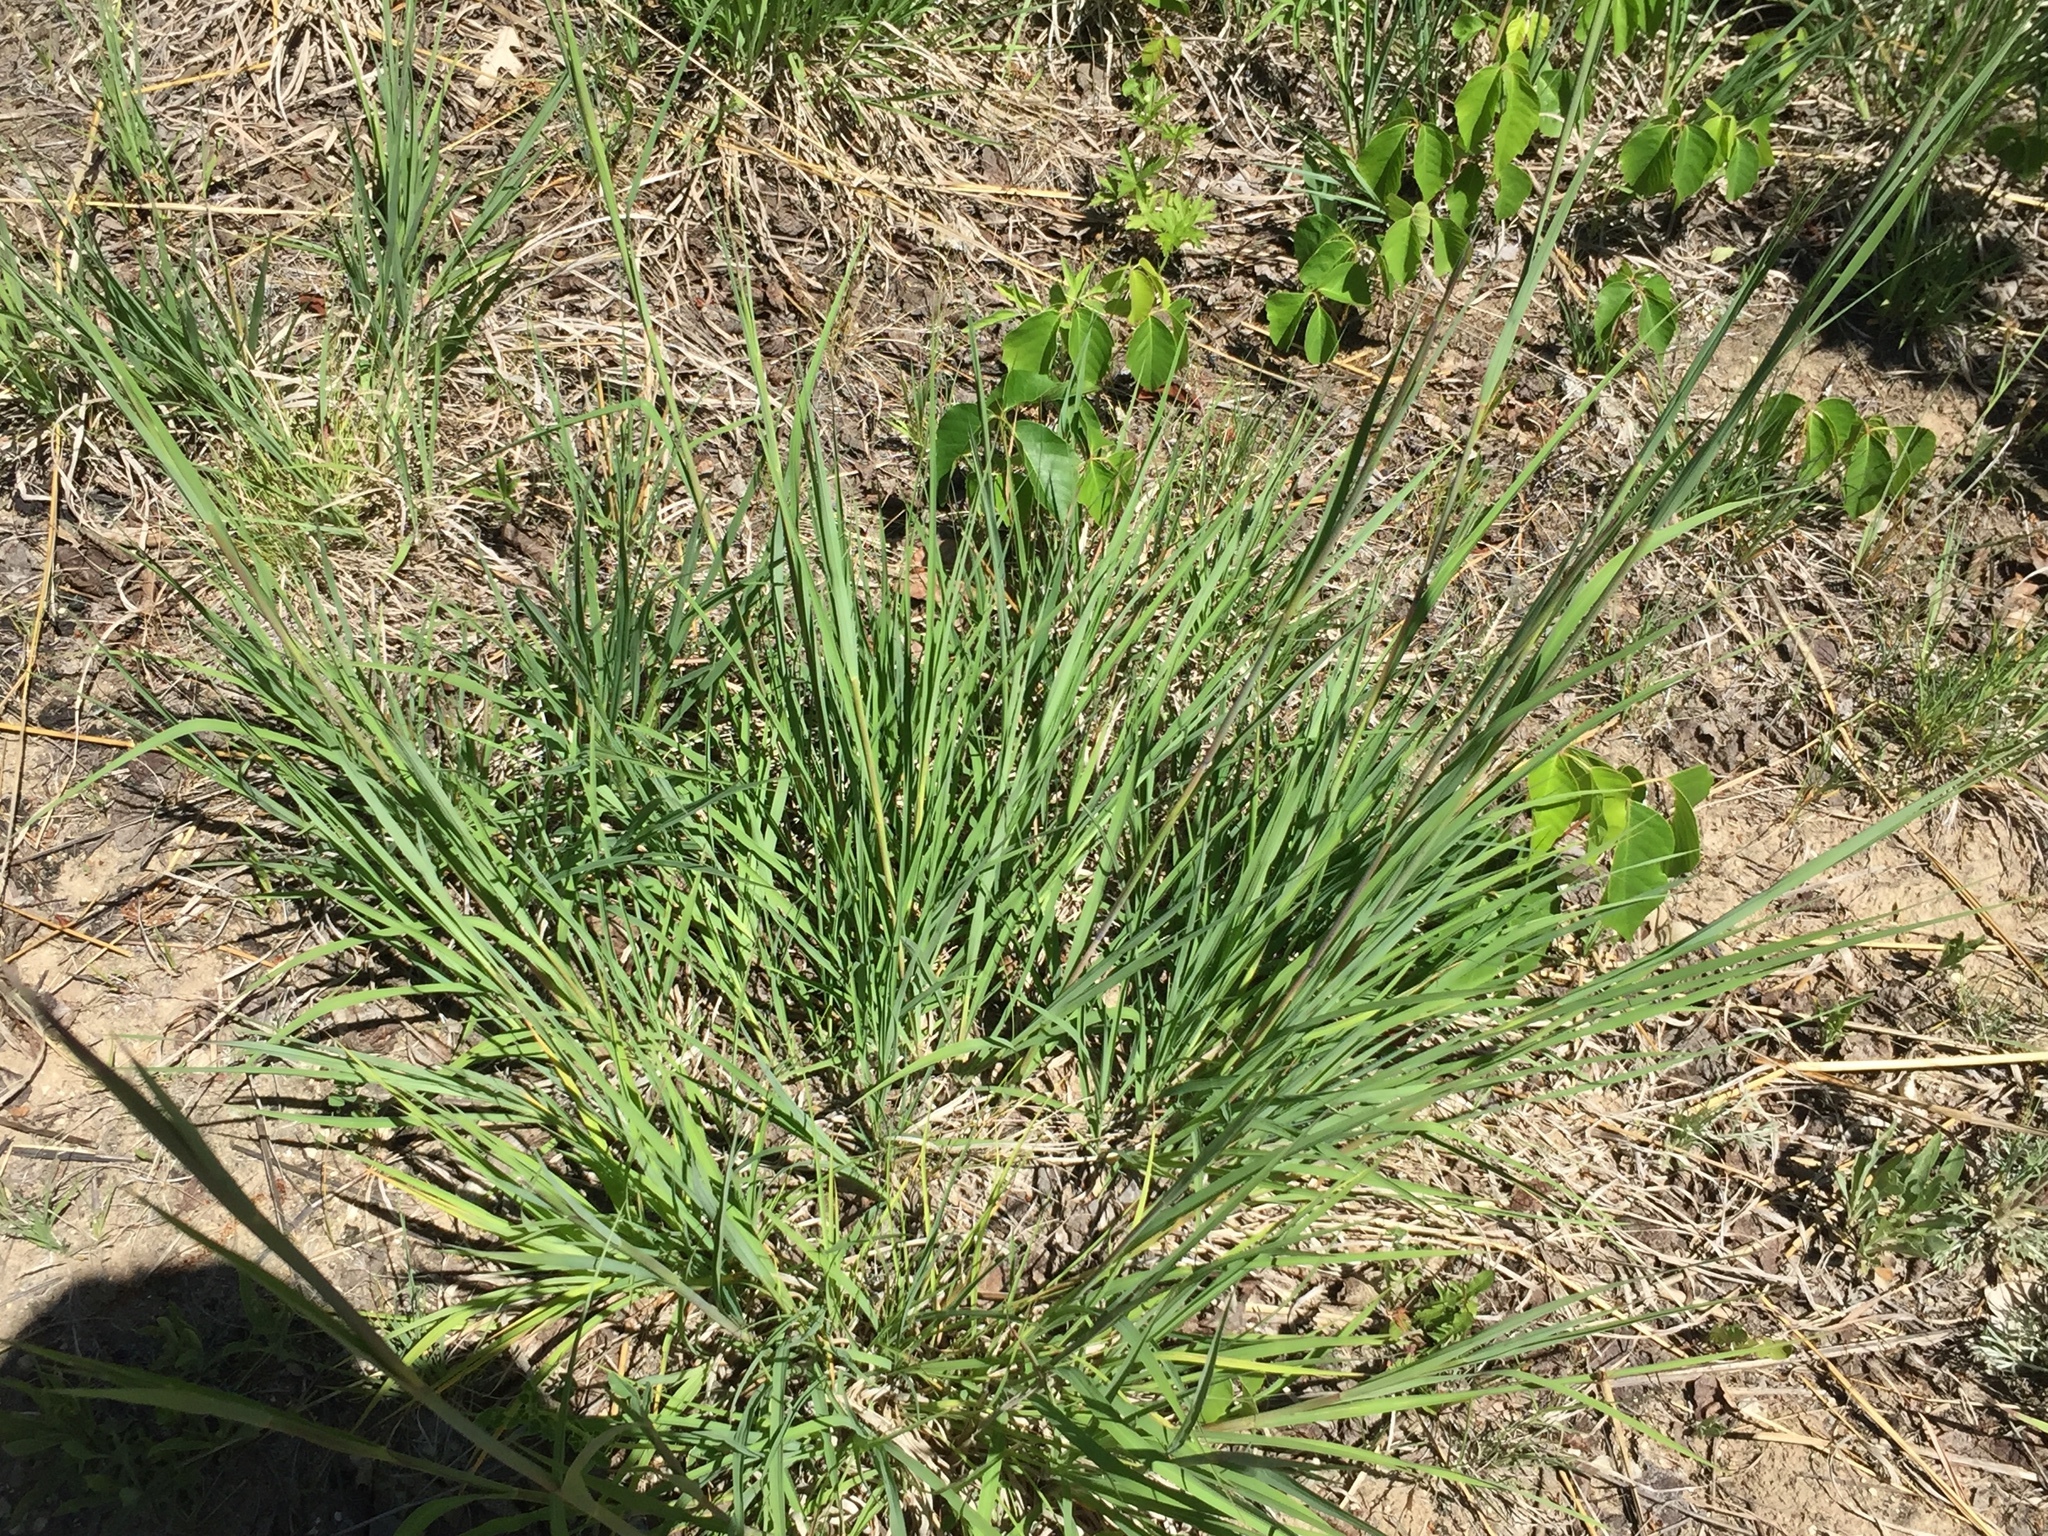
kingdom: Plantae
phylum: Tracheophyta
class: Liliopsida
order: Poales
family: Poaceae
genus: Andropogon
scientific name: Andropogon gerardi
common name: Big bluestem
